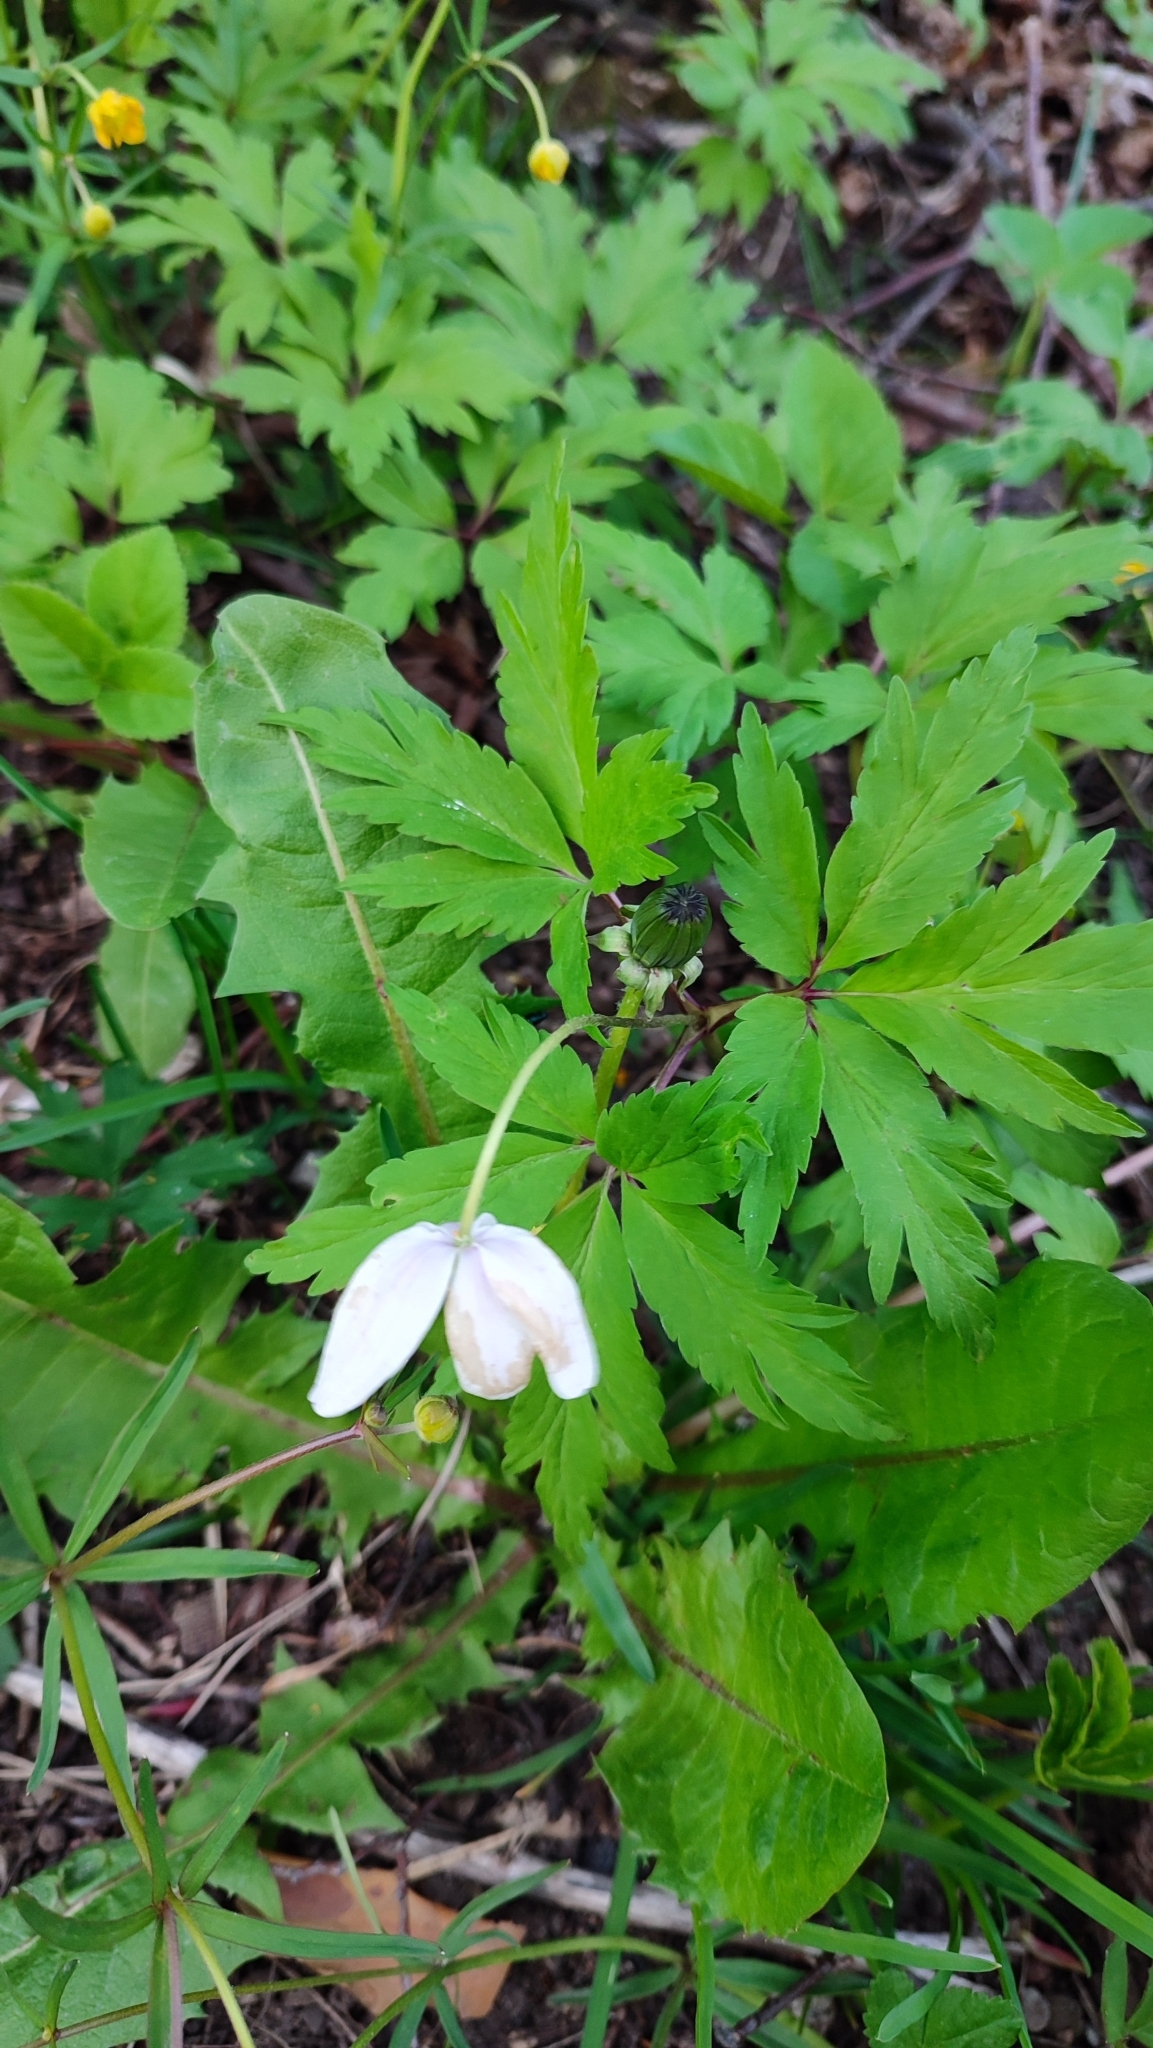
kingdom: Plantae
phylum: Tracheophyta
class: Magnoliopsida
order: Ranunculales
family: Ranunculaceae
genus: Anemone
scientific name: Anemone nemorosa
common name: Wood anemone
